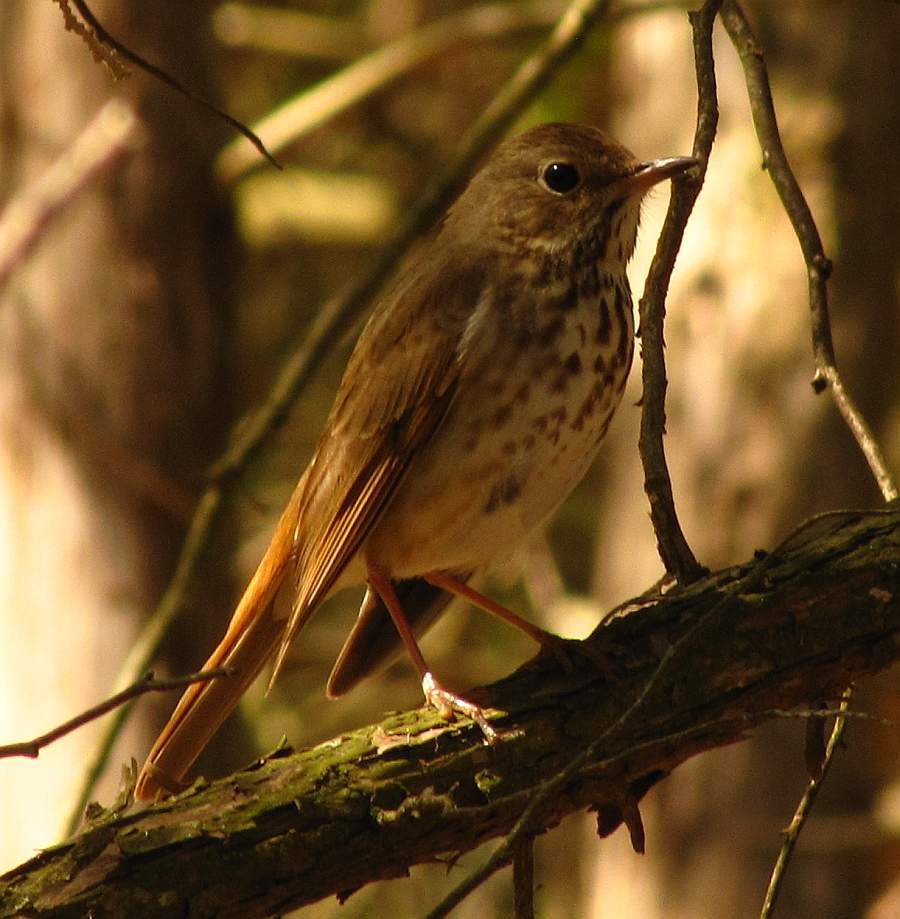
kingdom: Animalia
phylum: Chordata
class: Aves
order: Passeriformes
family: Turdidae
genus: Catharus
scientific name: Catharus guttatus
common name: Hermit thrush
